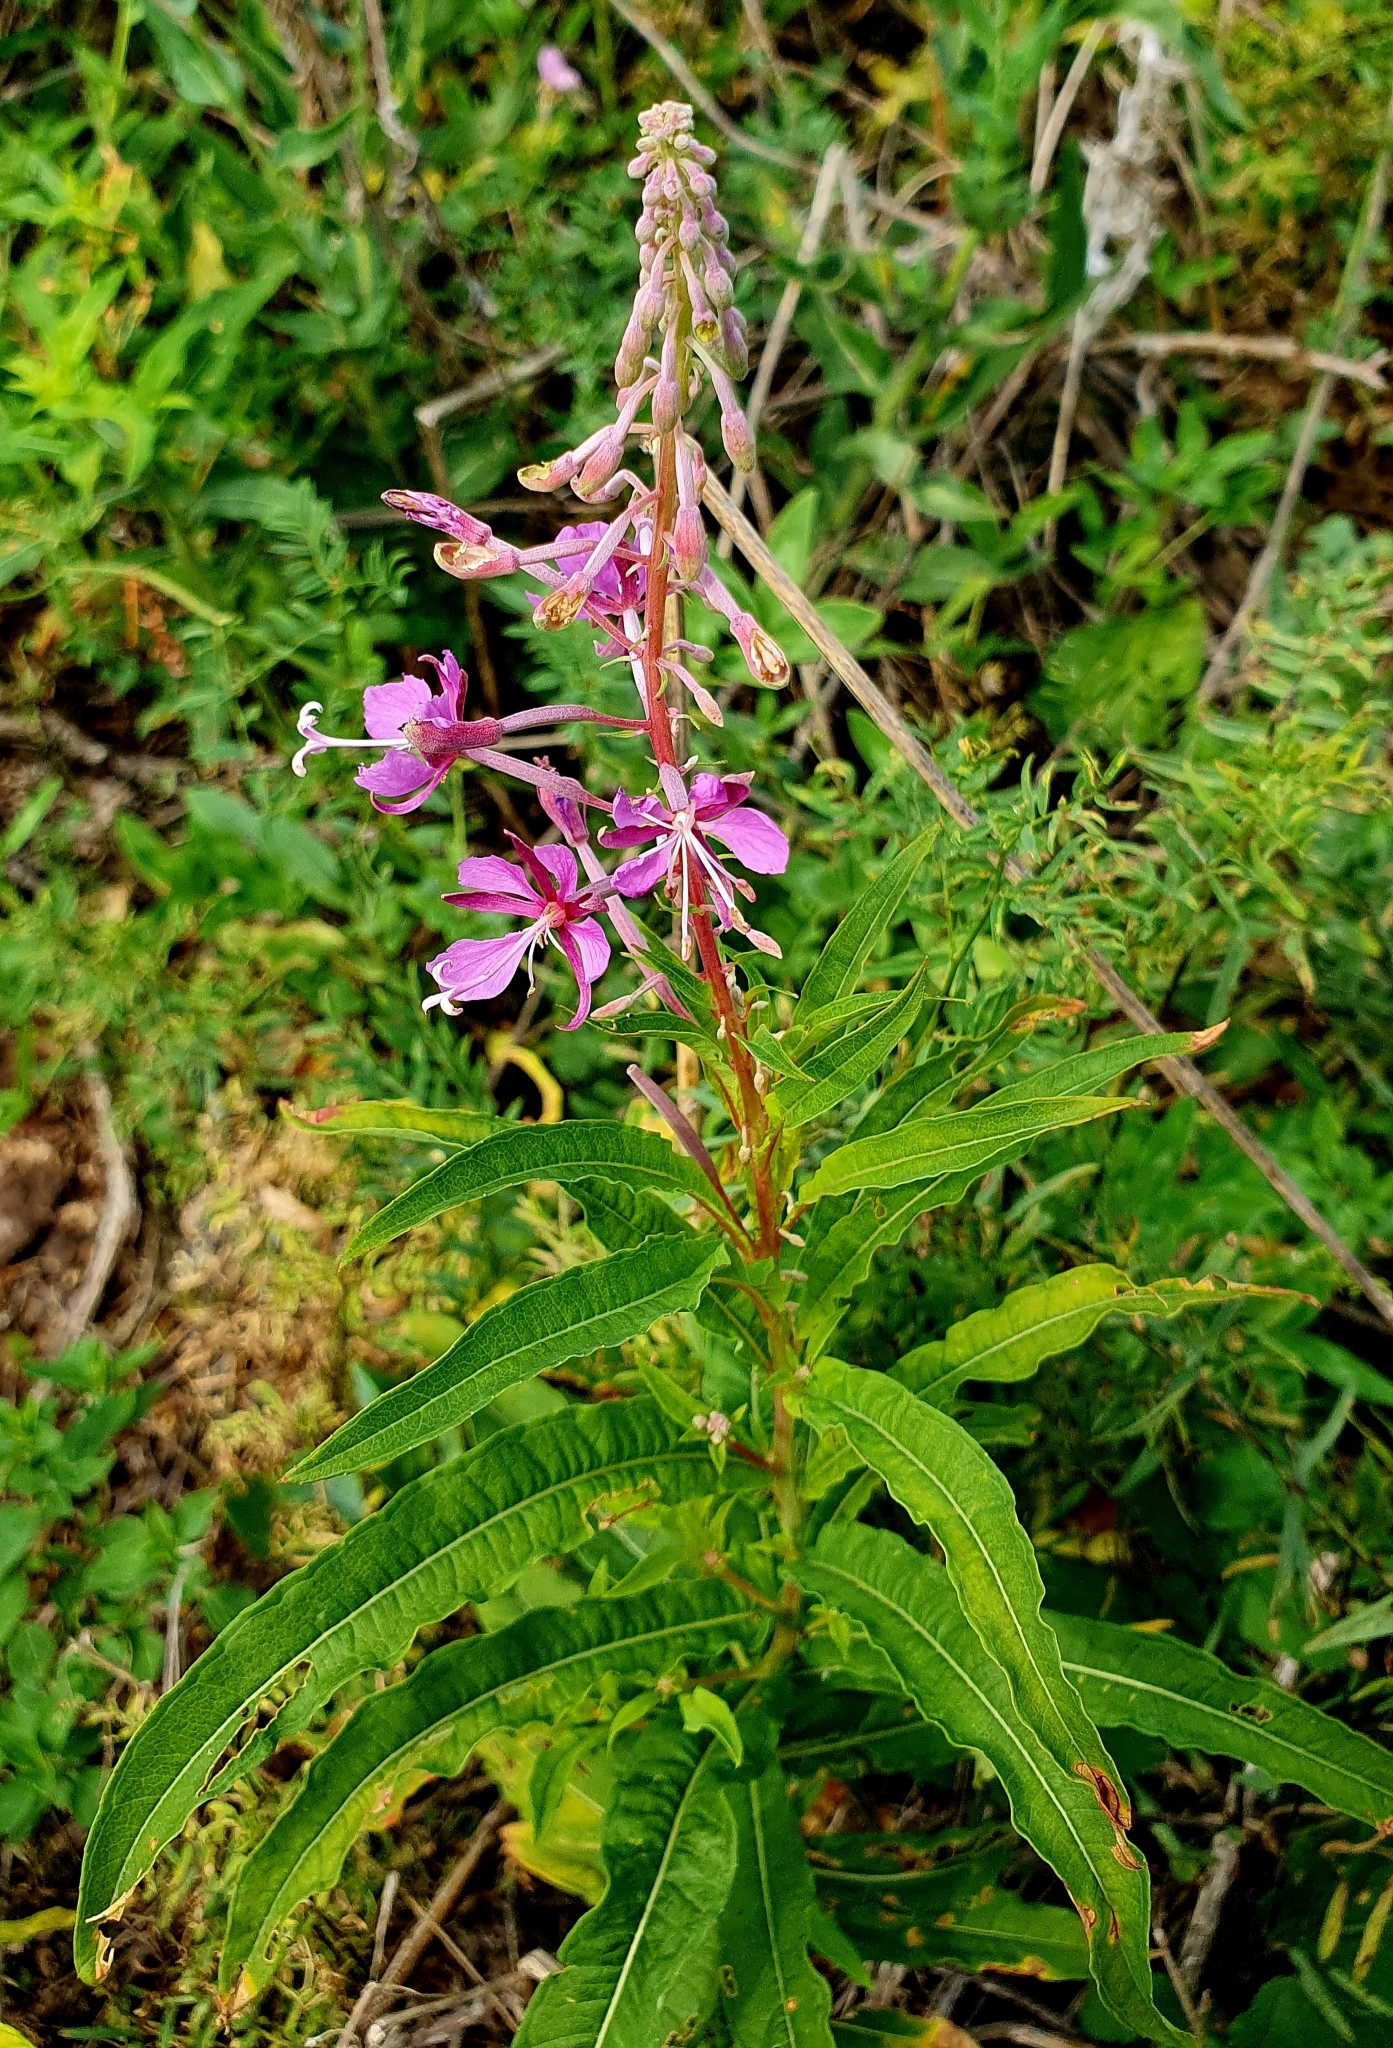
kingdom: Plantae
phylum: Tracheophyta
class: Magnoliopsida
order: Myrtales
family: Onagraceae
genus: Chamaenerion
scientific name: Chamaenerion angustifolium
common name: Fireweed
